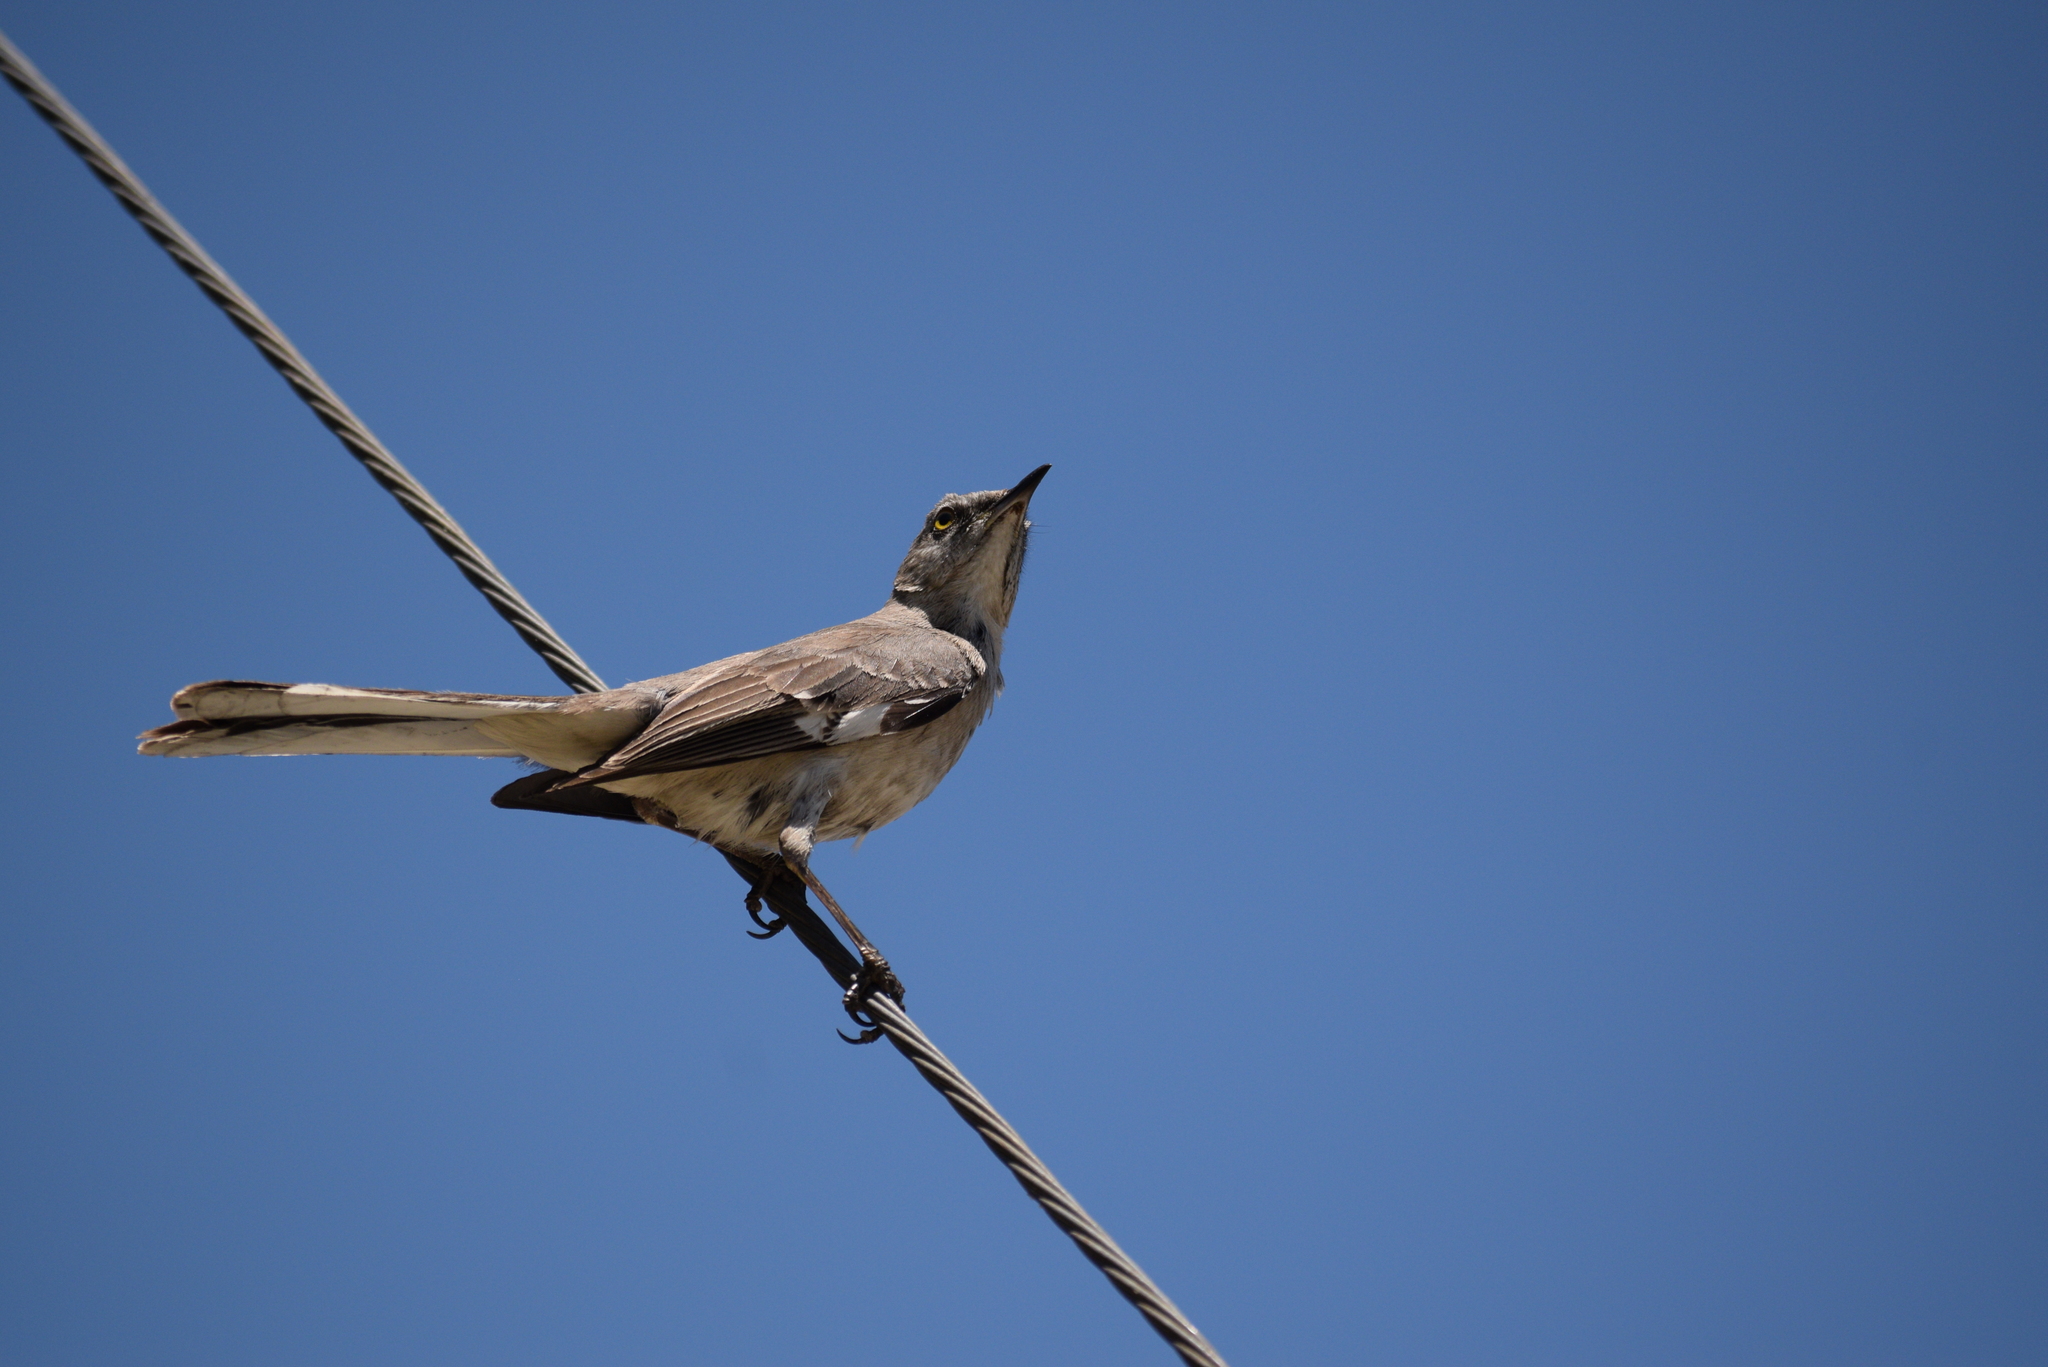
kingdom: Animalia
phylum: Chordata
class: Aves
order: Passeriformes
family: Mimidae
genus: Mimus
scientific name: Mimus polyglottos
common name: Northern mockingbird
